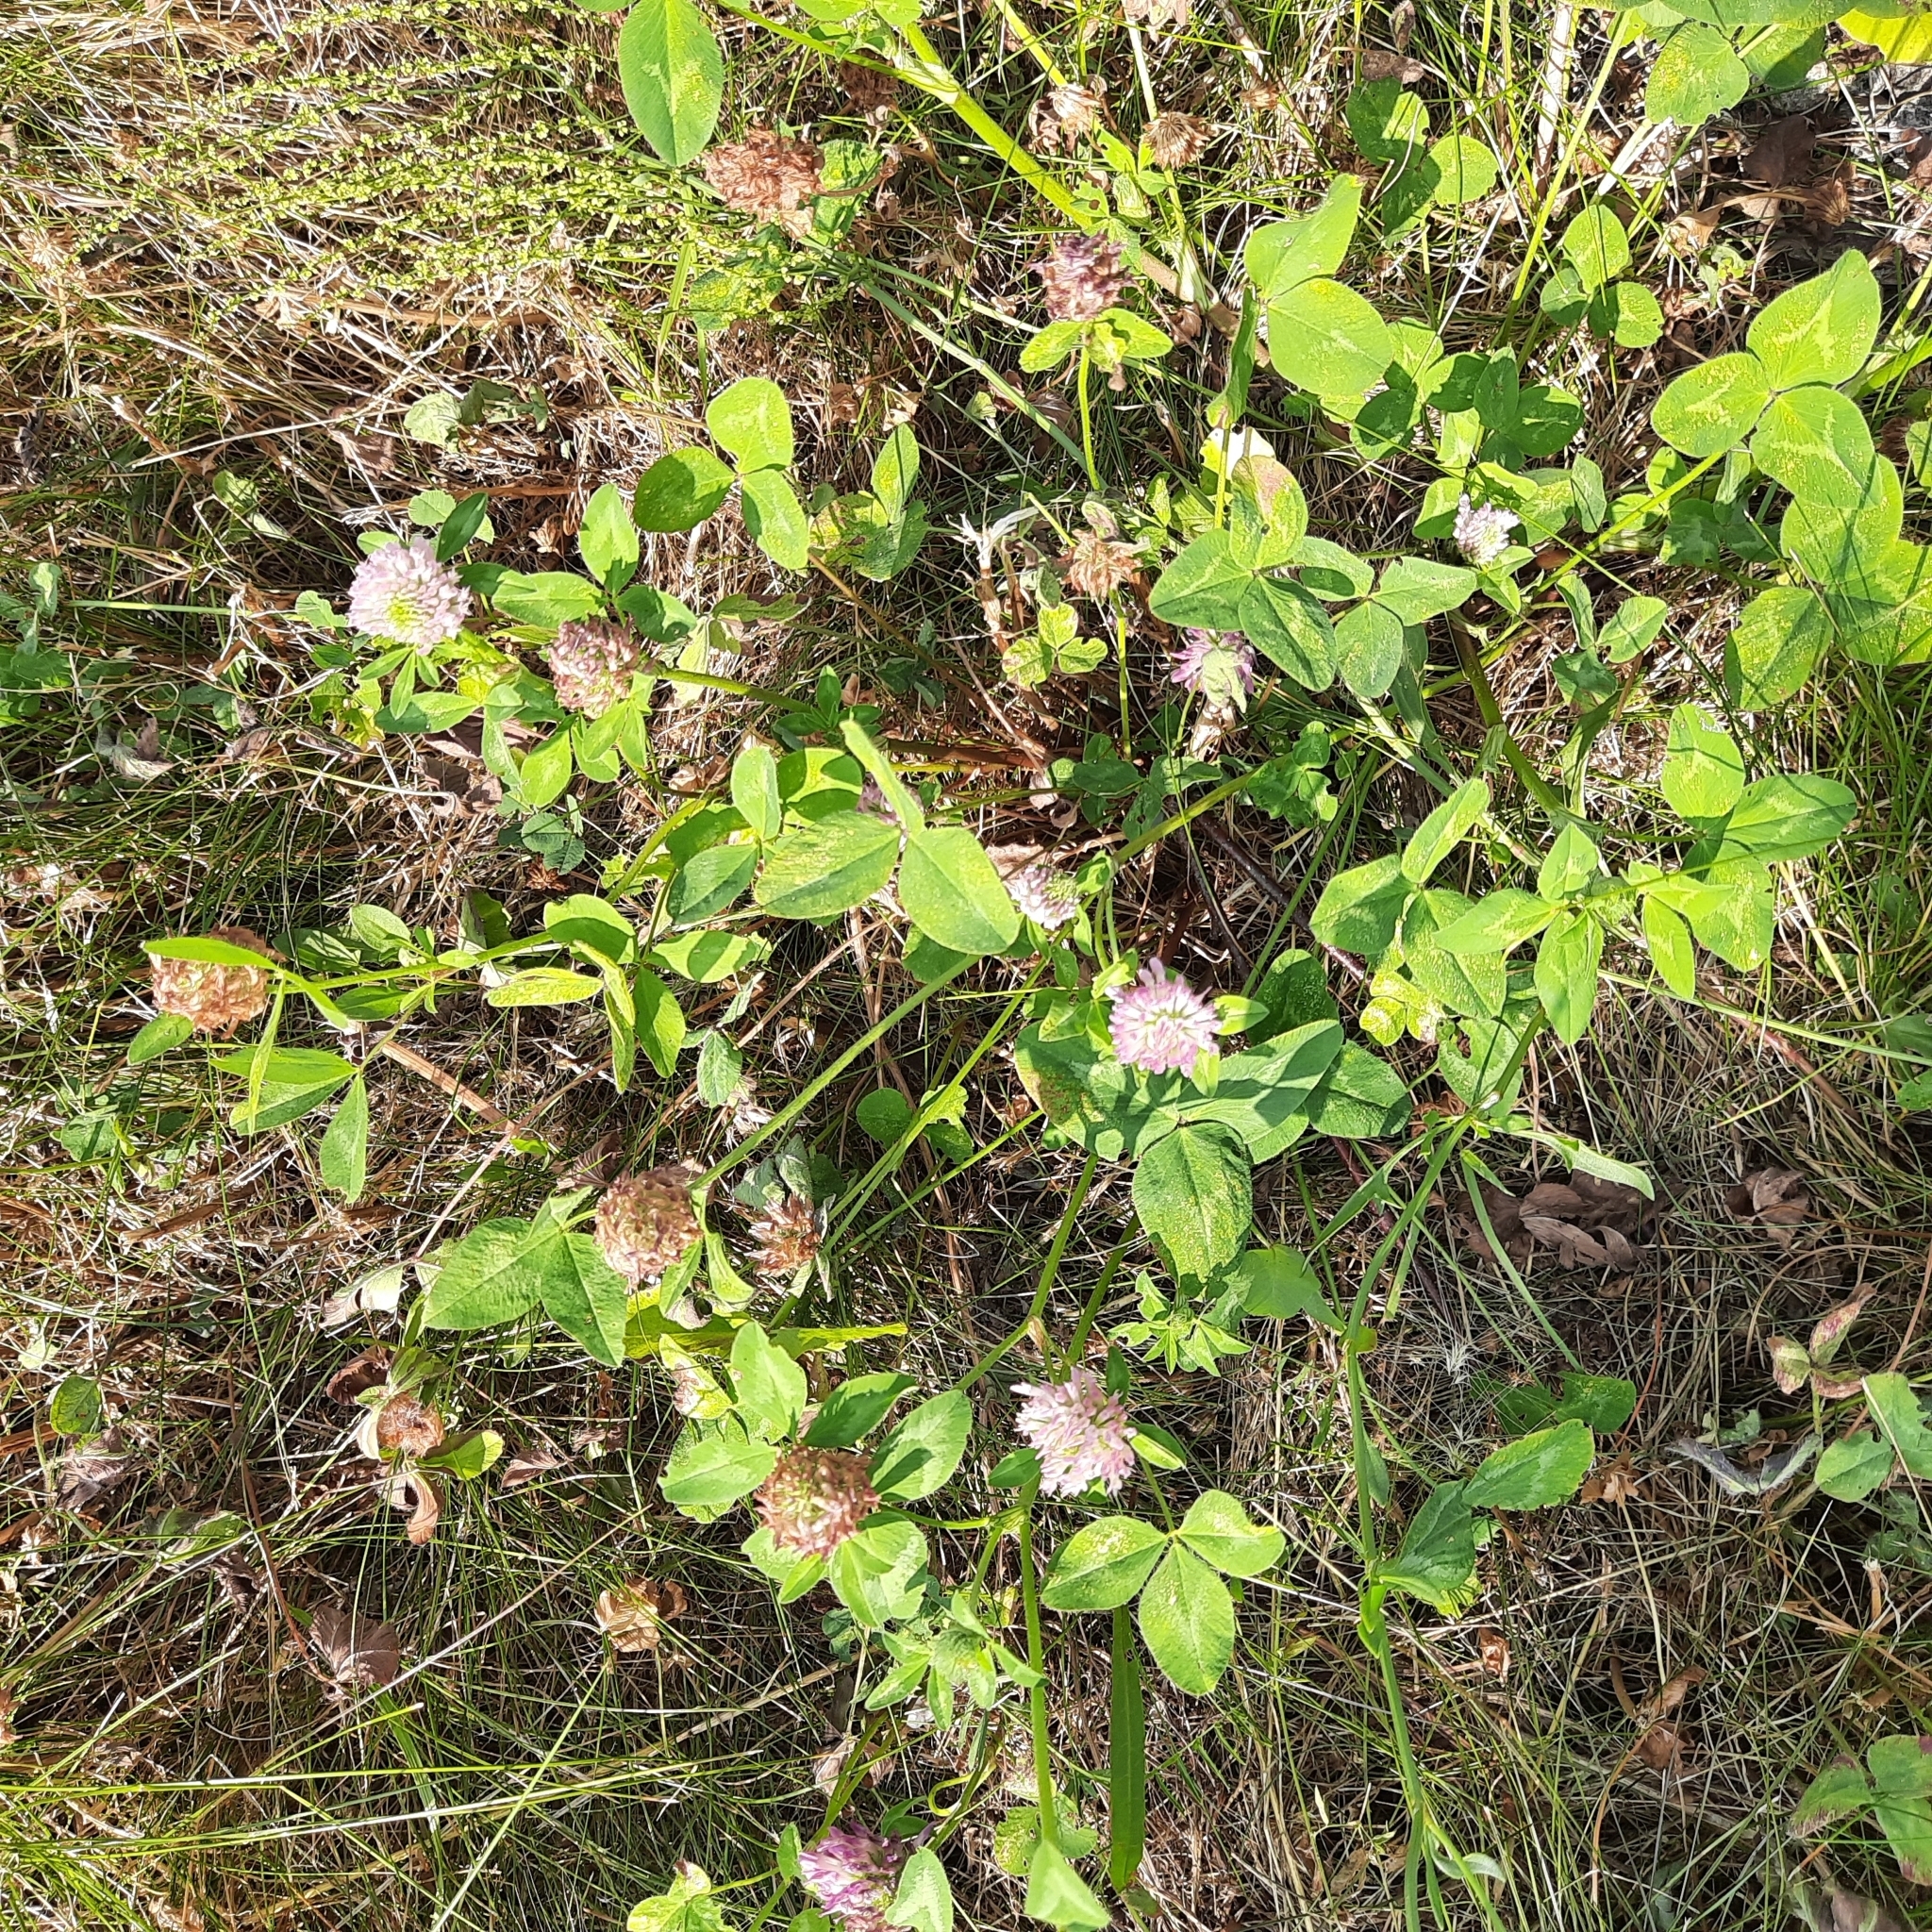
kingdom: Plantae
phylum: Tracheophyta
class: Magnoliopsida
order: Fabales
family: Fabaceae
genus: Trifolium
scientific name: Trifolium pratense
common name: Red clover
